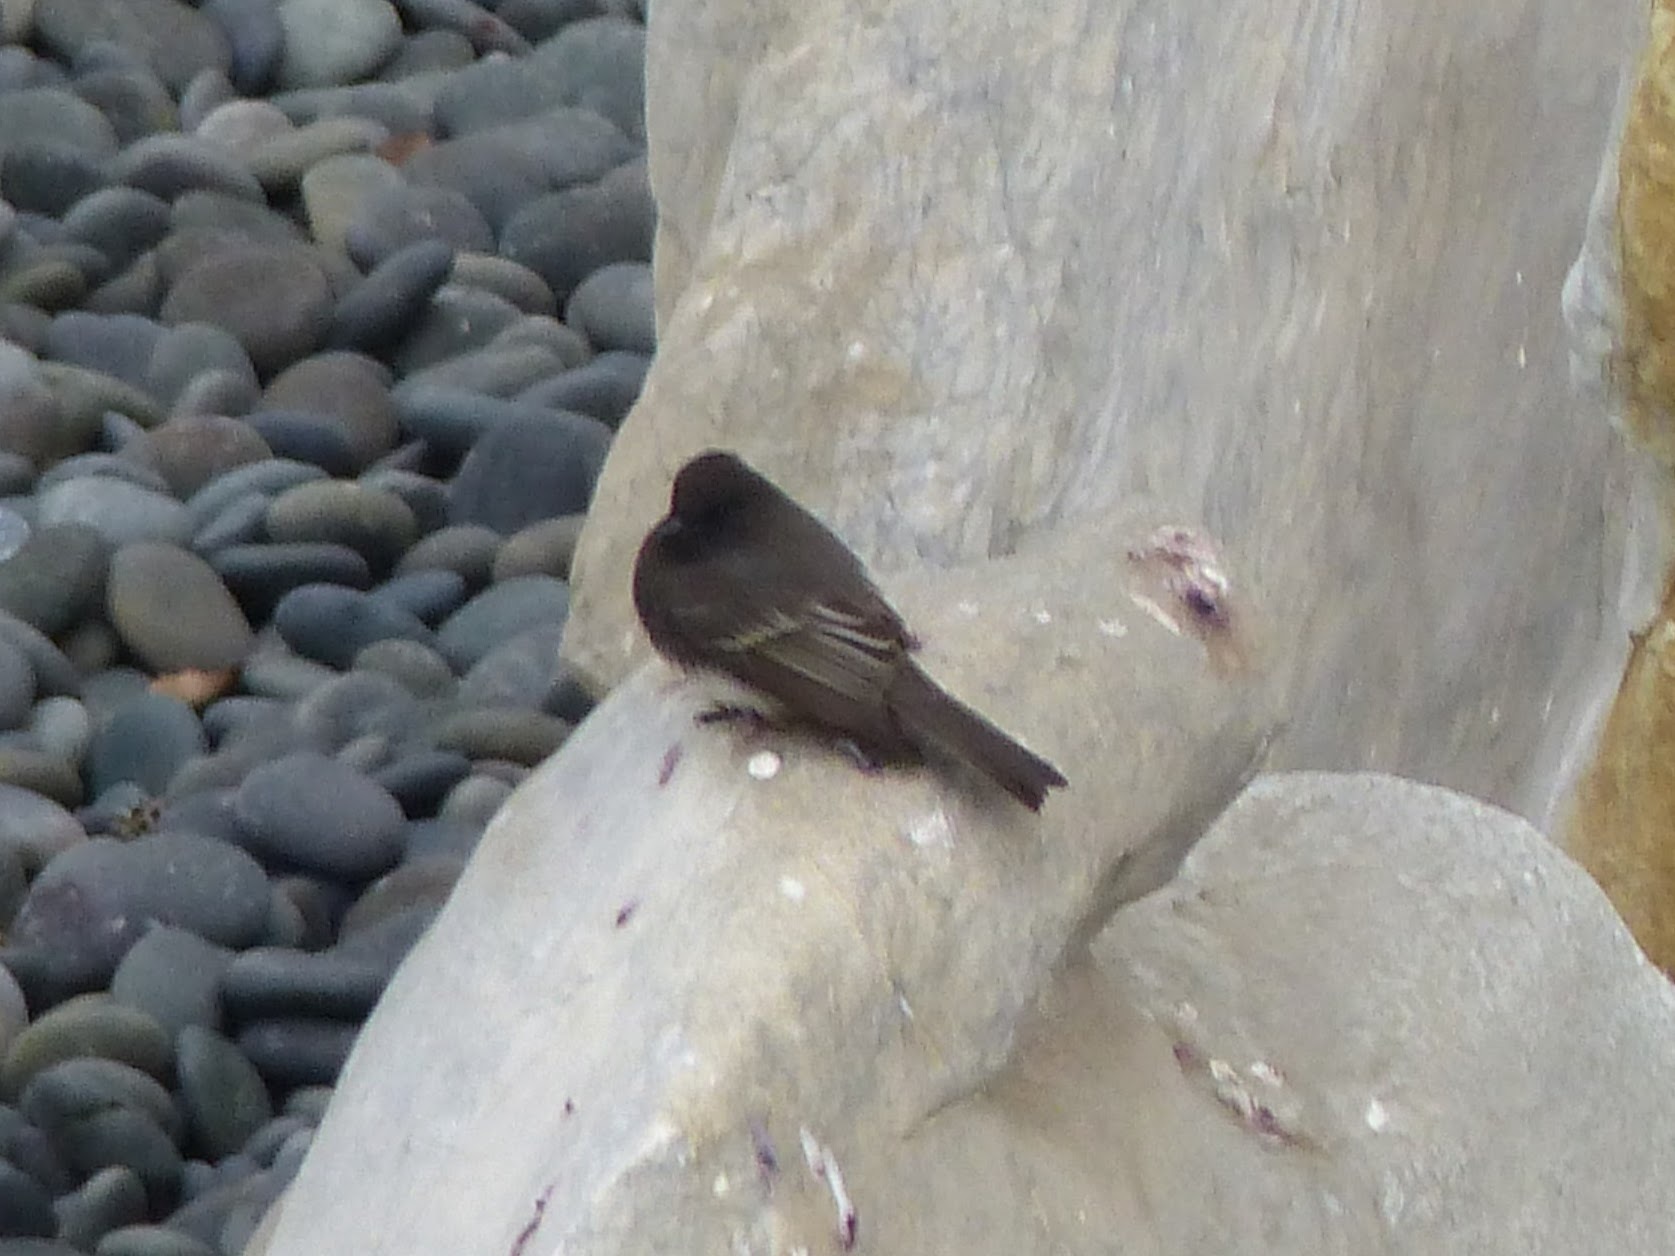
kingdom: Animalia
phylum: Chordata
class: Aves
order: Passeriformes
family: Tyrannidae
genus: Sayornis
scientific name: Sayornis nigricans
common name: Black phoebe
